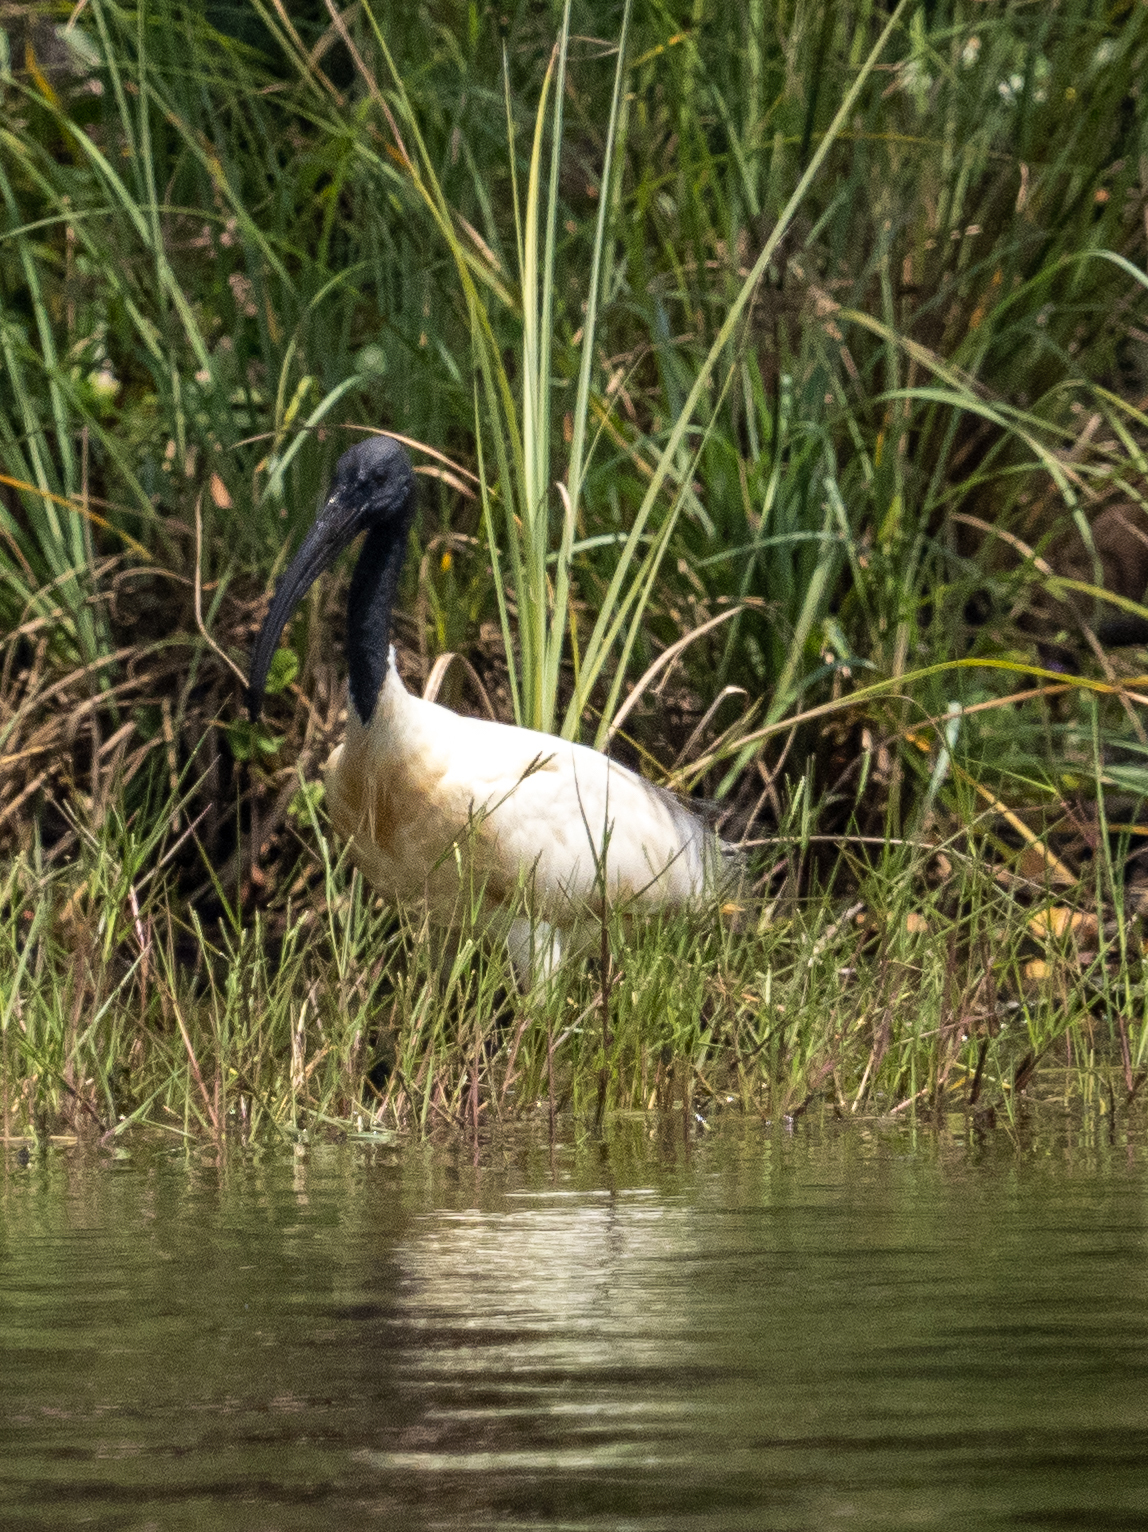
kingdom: Animalia
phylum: Chordata
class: Aves
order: Pelecaniformes
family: Threskiornithidae
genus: Threskiornis
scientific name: Threskiornis melanocephalus
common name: Black-headed ibis
